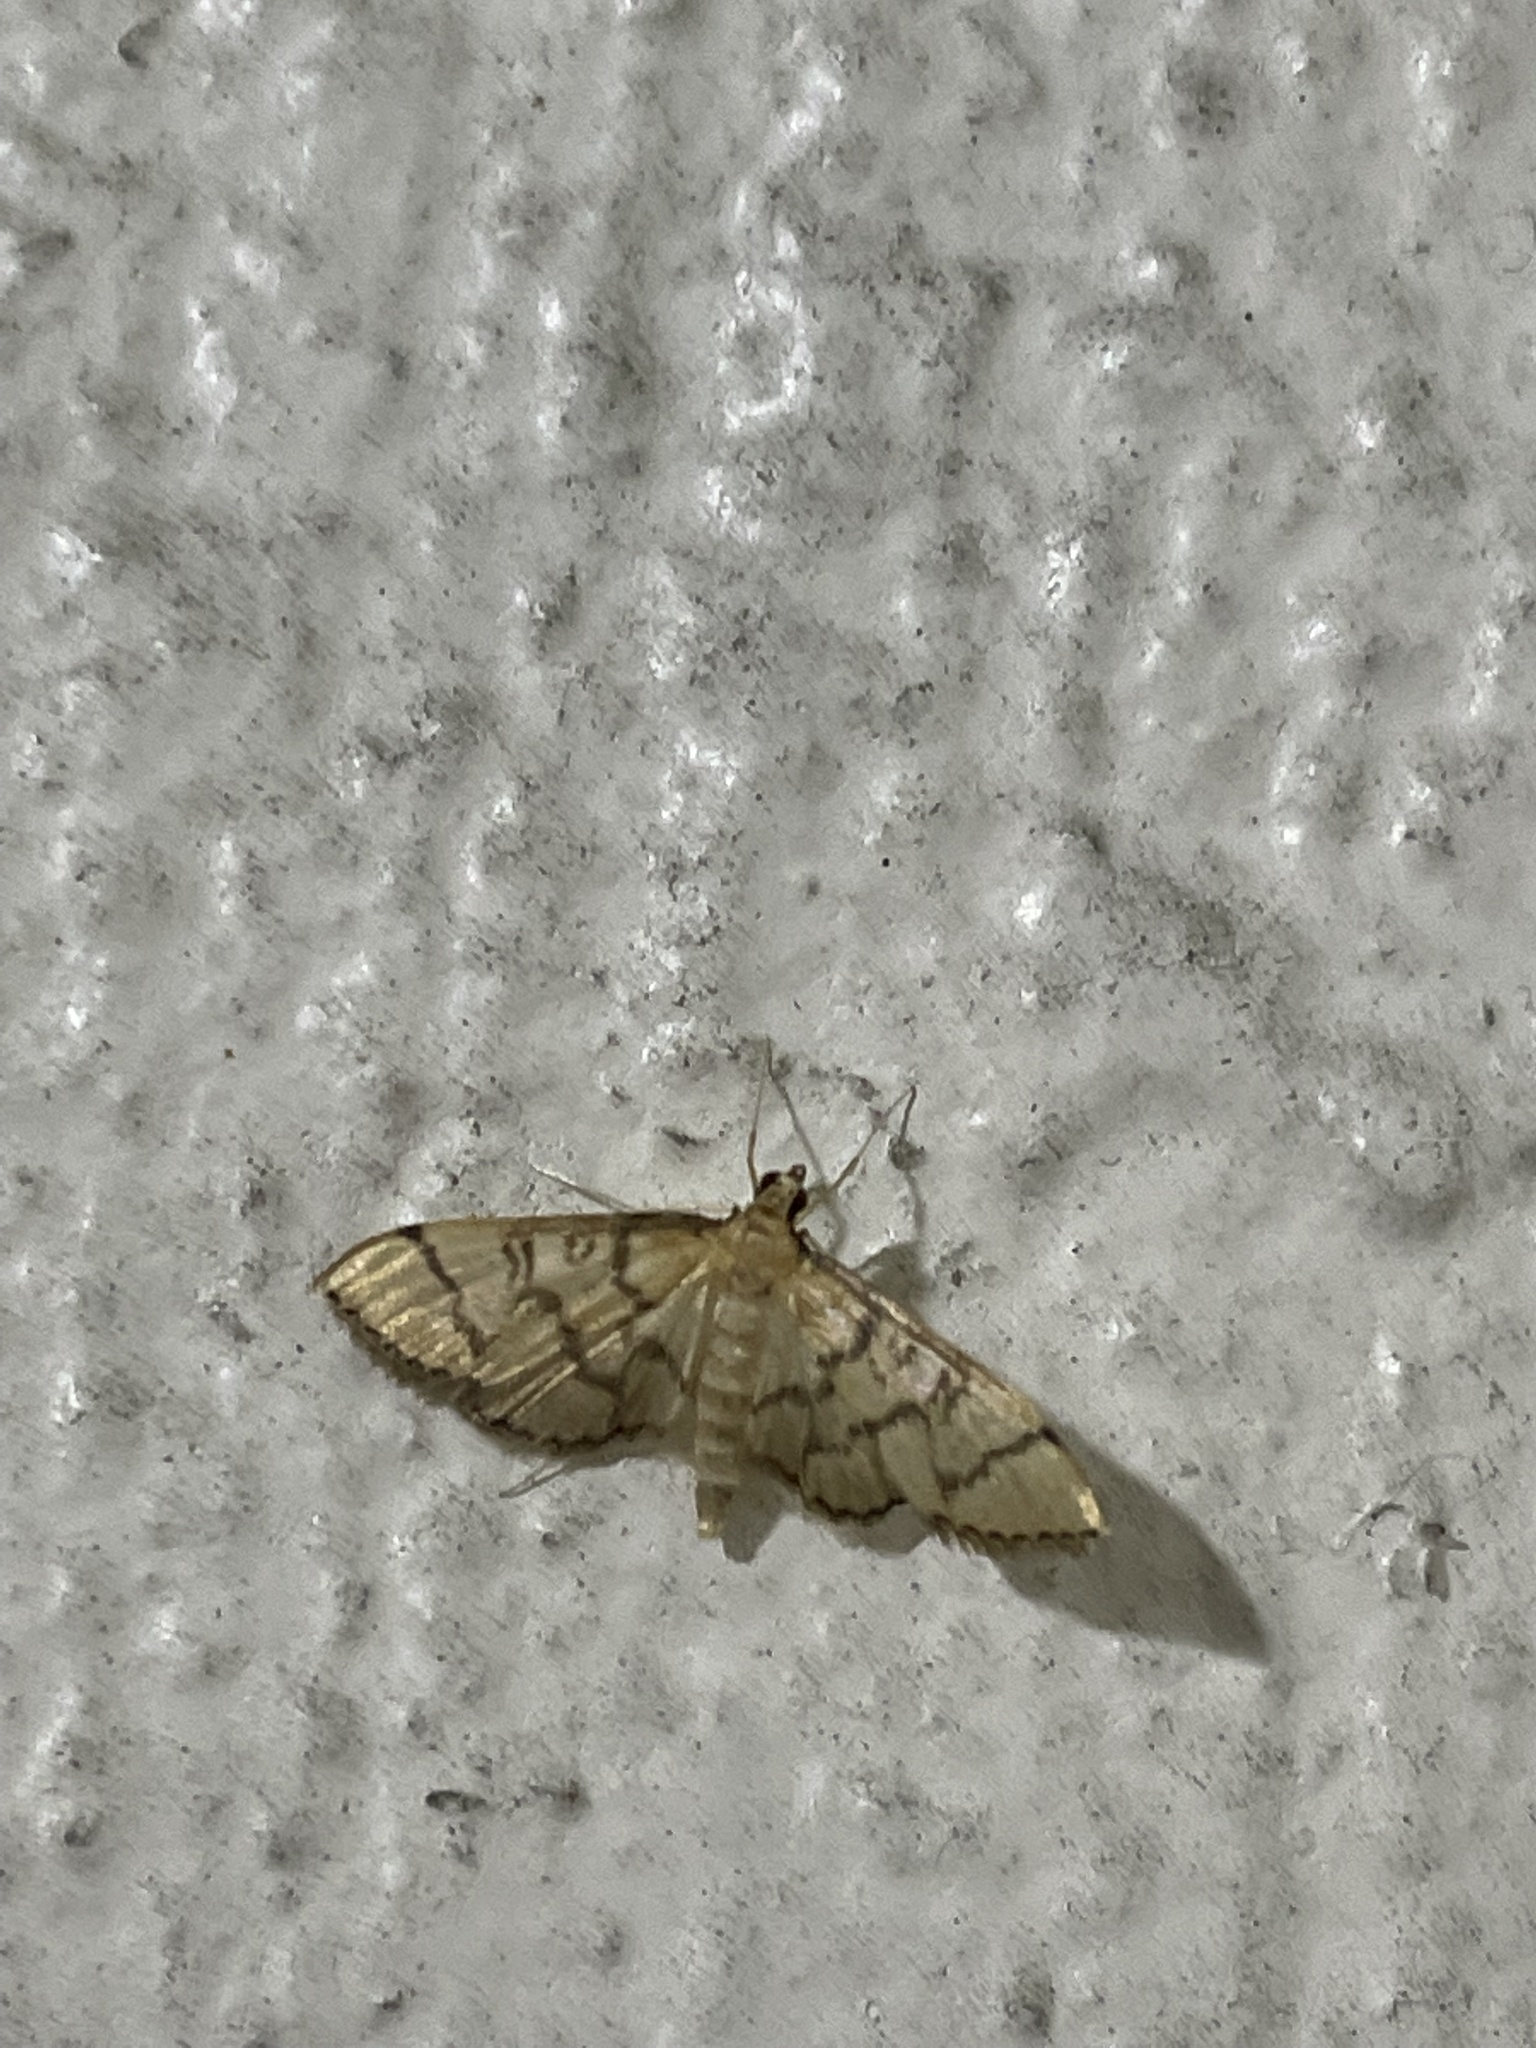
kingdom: Animalia
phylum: Arthropoda
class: Insecta
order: Lepidoptera
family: Crambidae
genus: Lamprosema
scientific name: Lamprosema Blepharomastix ranalis
